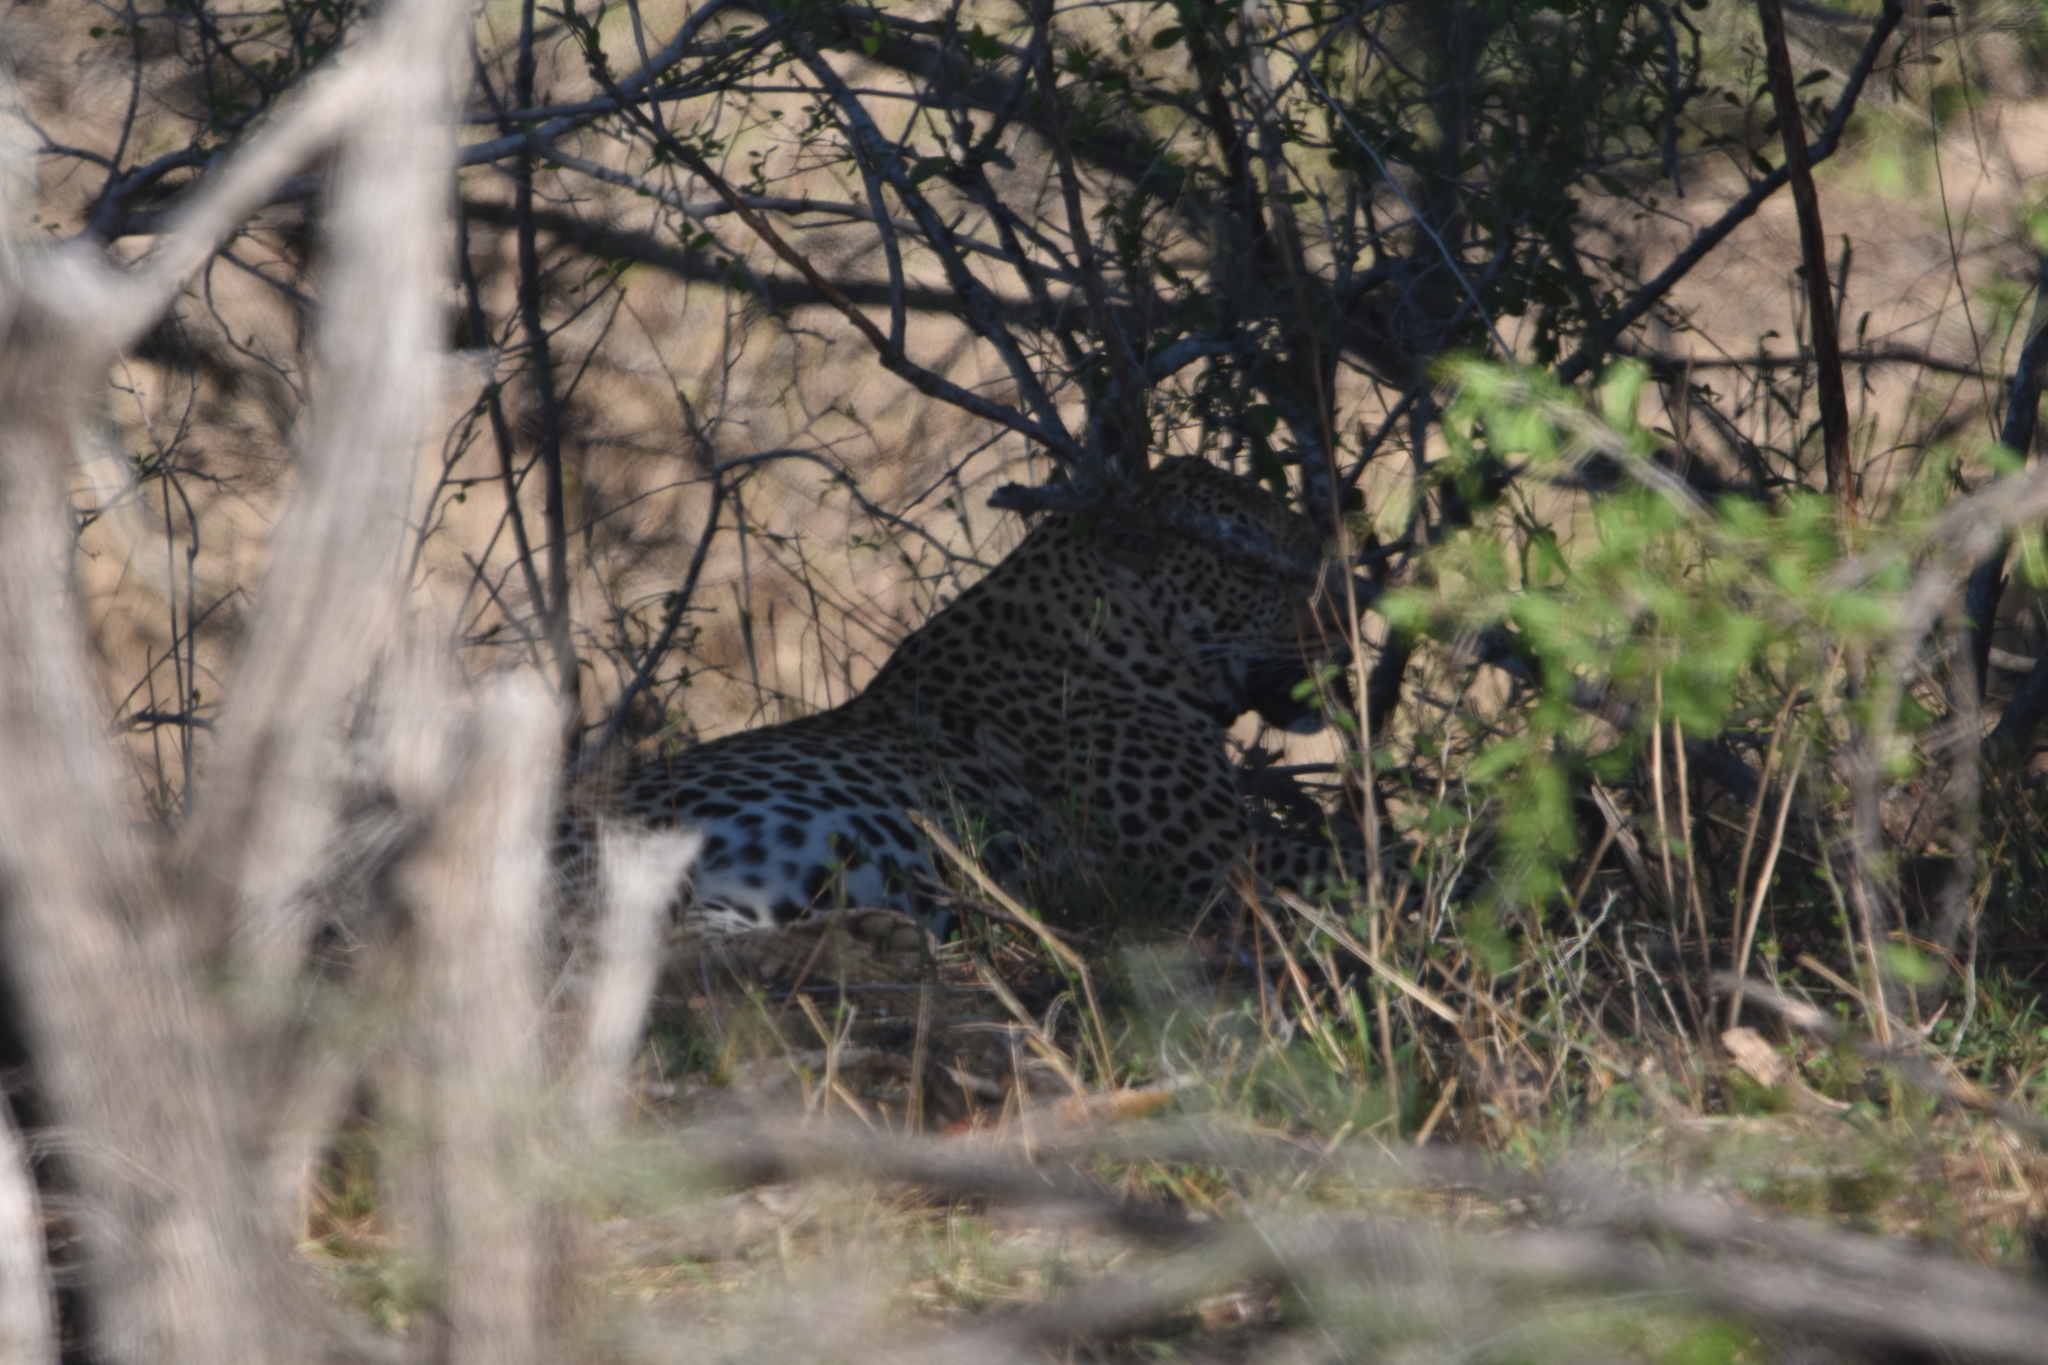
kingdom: Animalia
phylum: Chordata
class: Mammalia
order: Carnivora
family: Felidae
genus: Panthera
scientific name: Panthera pardus
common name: Leopard
